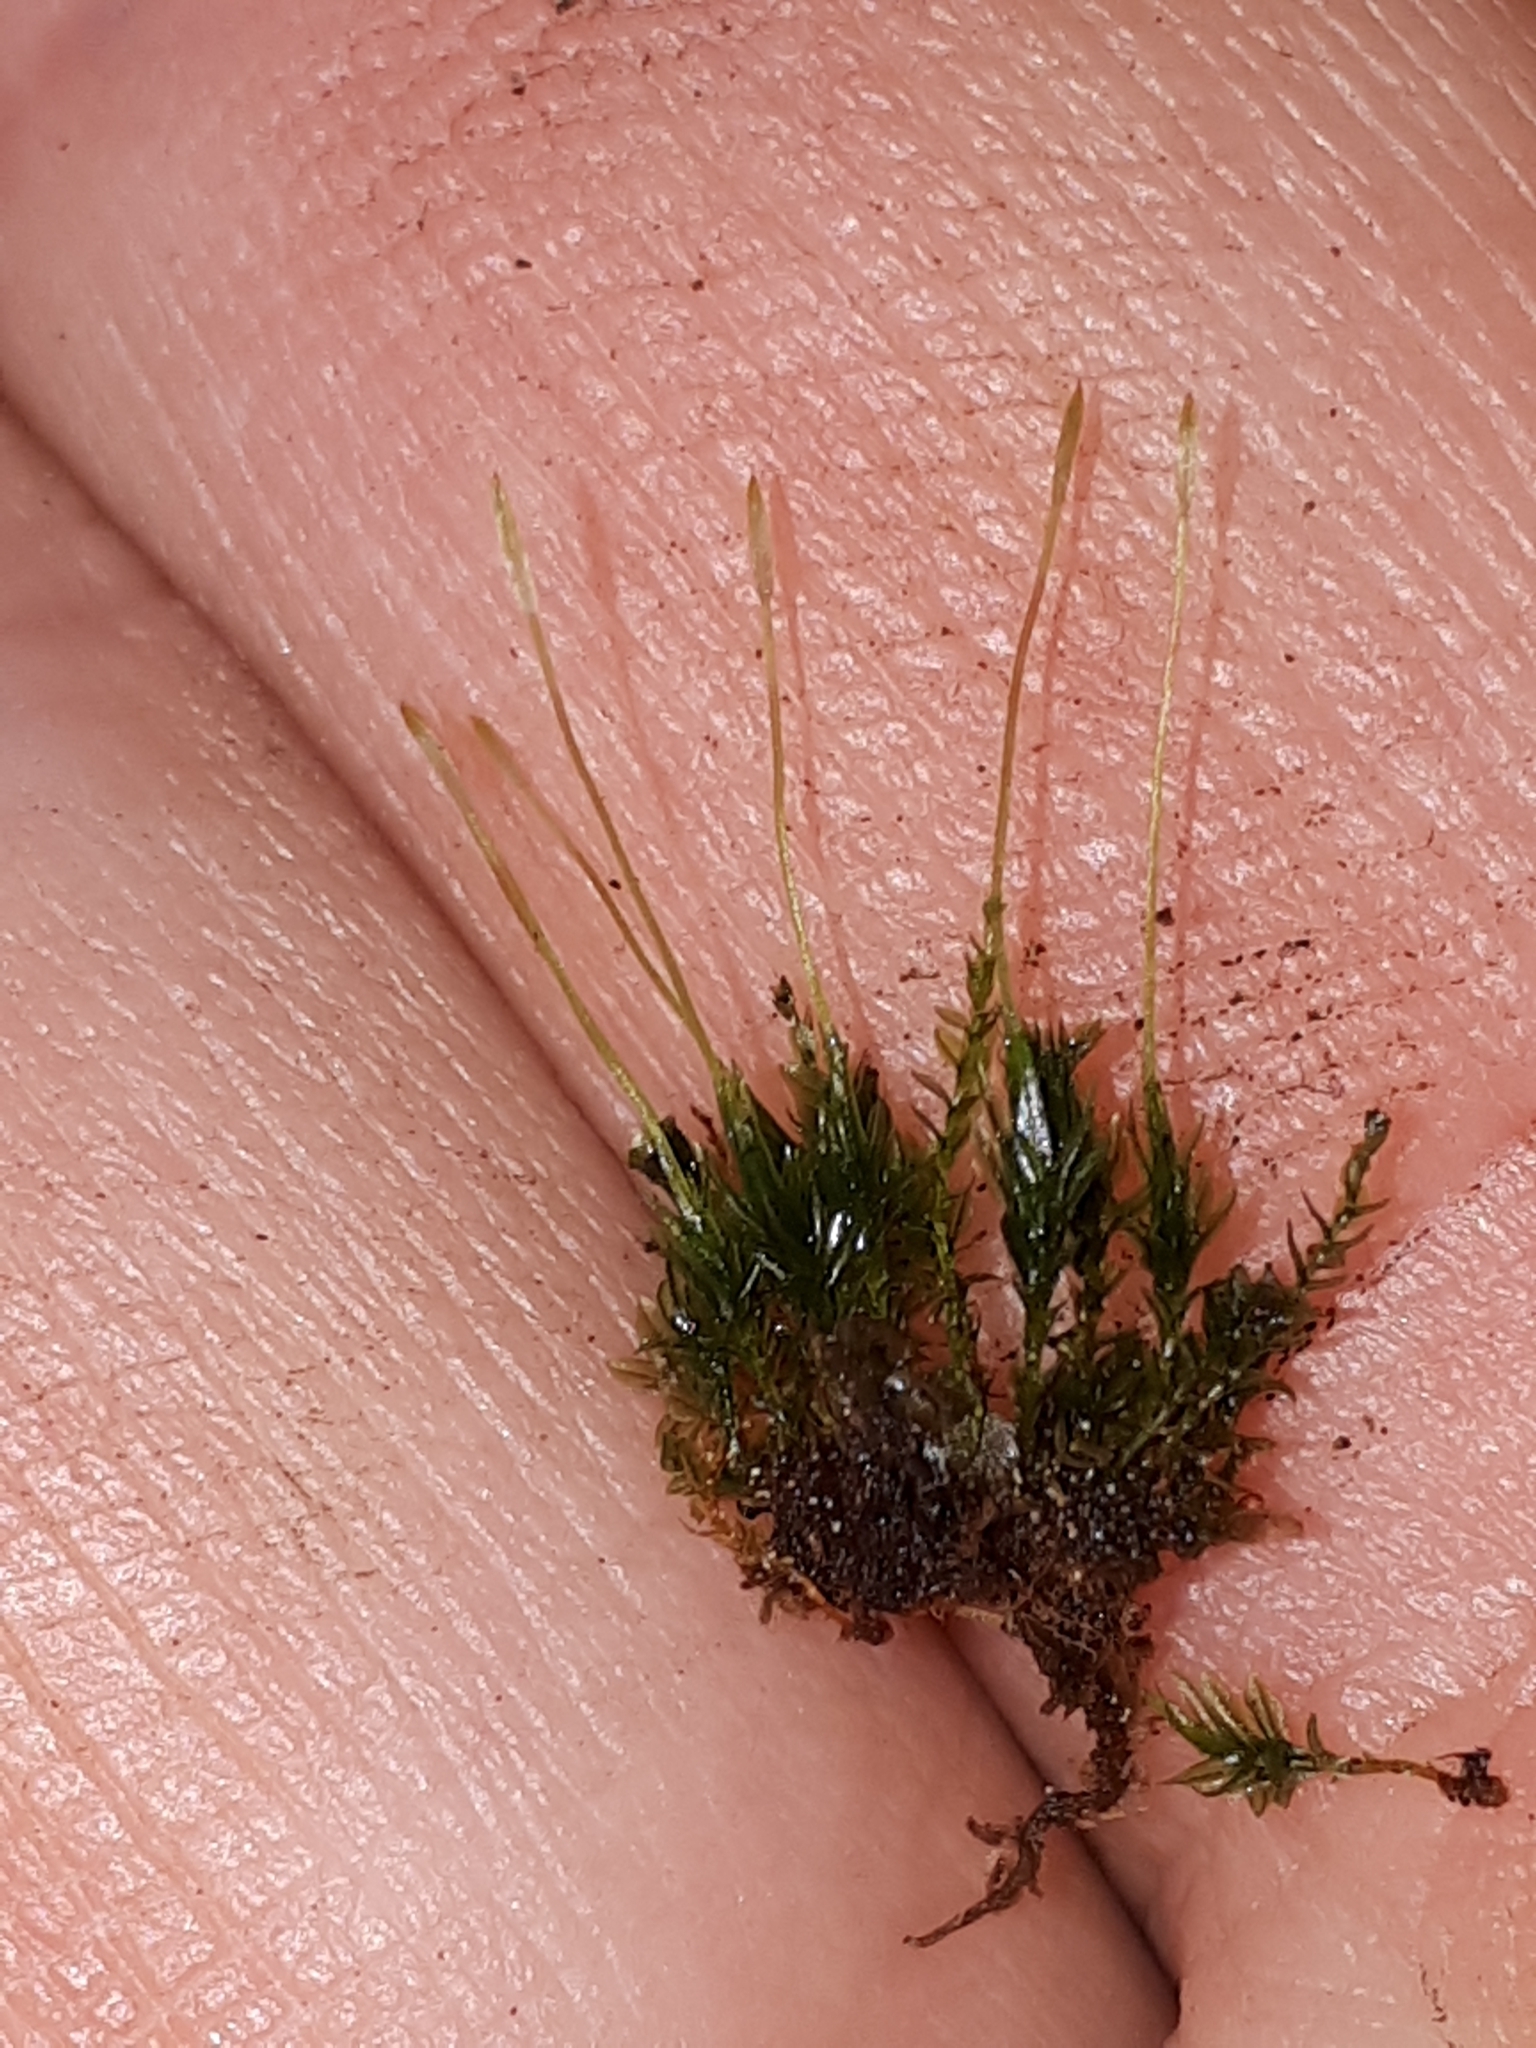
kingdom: Plantae
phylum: Bryophyta
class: Polytrichopsida
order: Tetraphidales
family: Tetraphidaceae
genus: Tetraphis
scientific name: Tetraphis pellucida
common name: Common four-toothed moss
